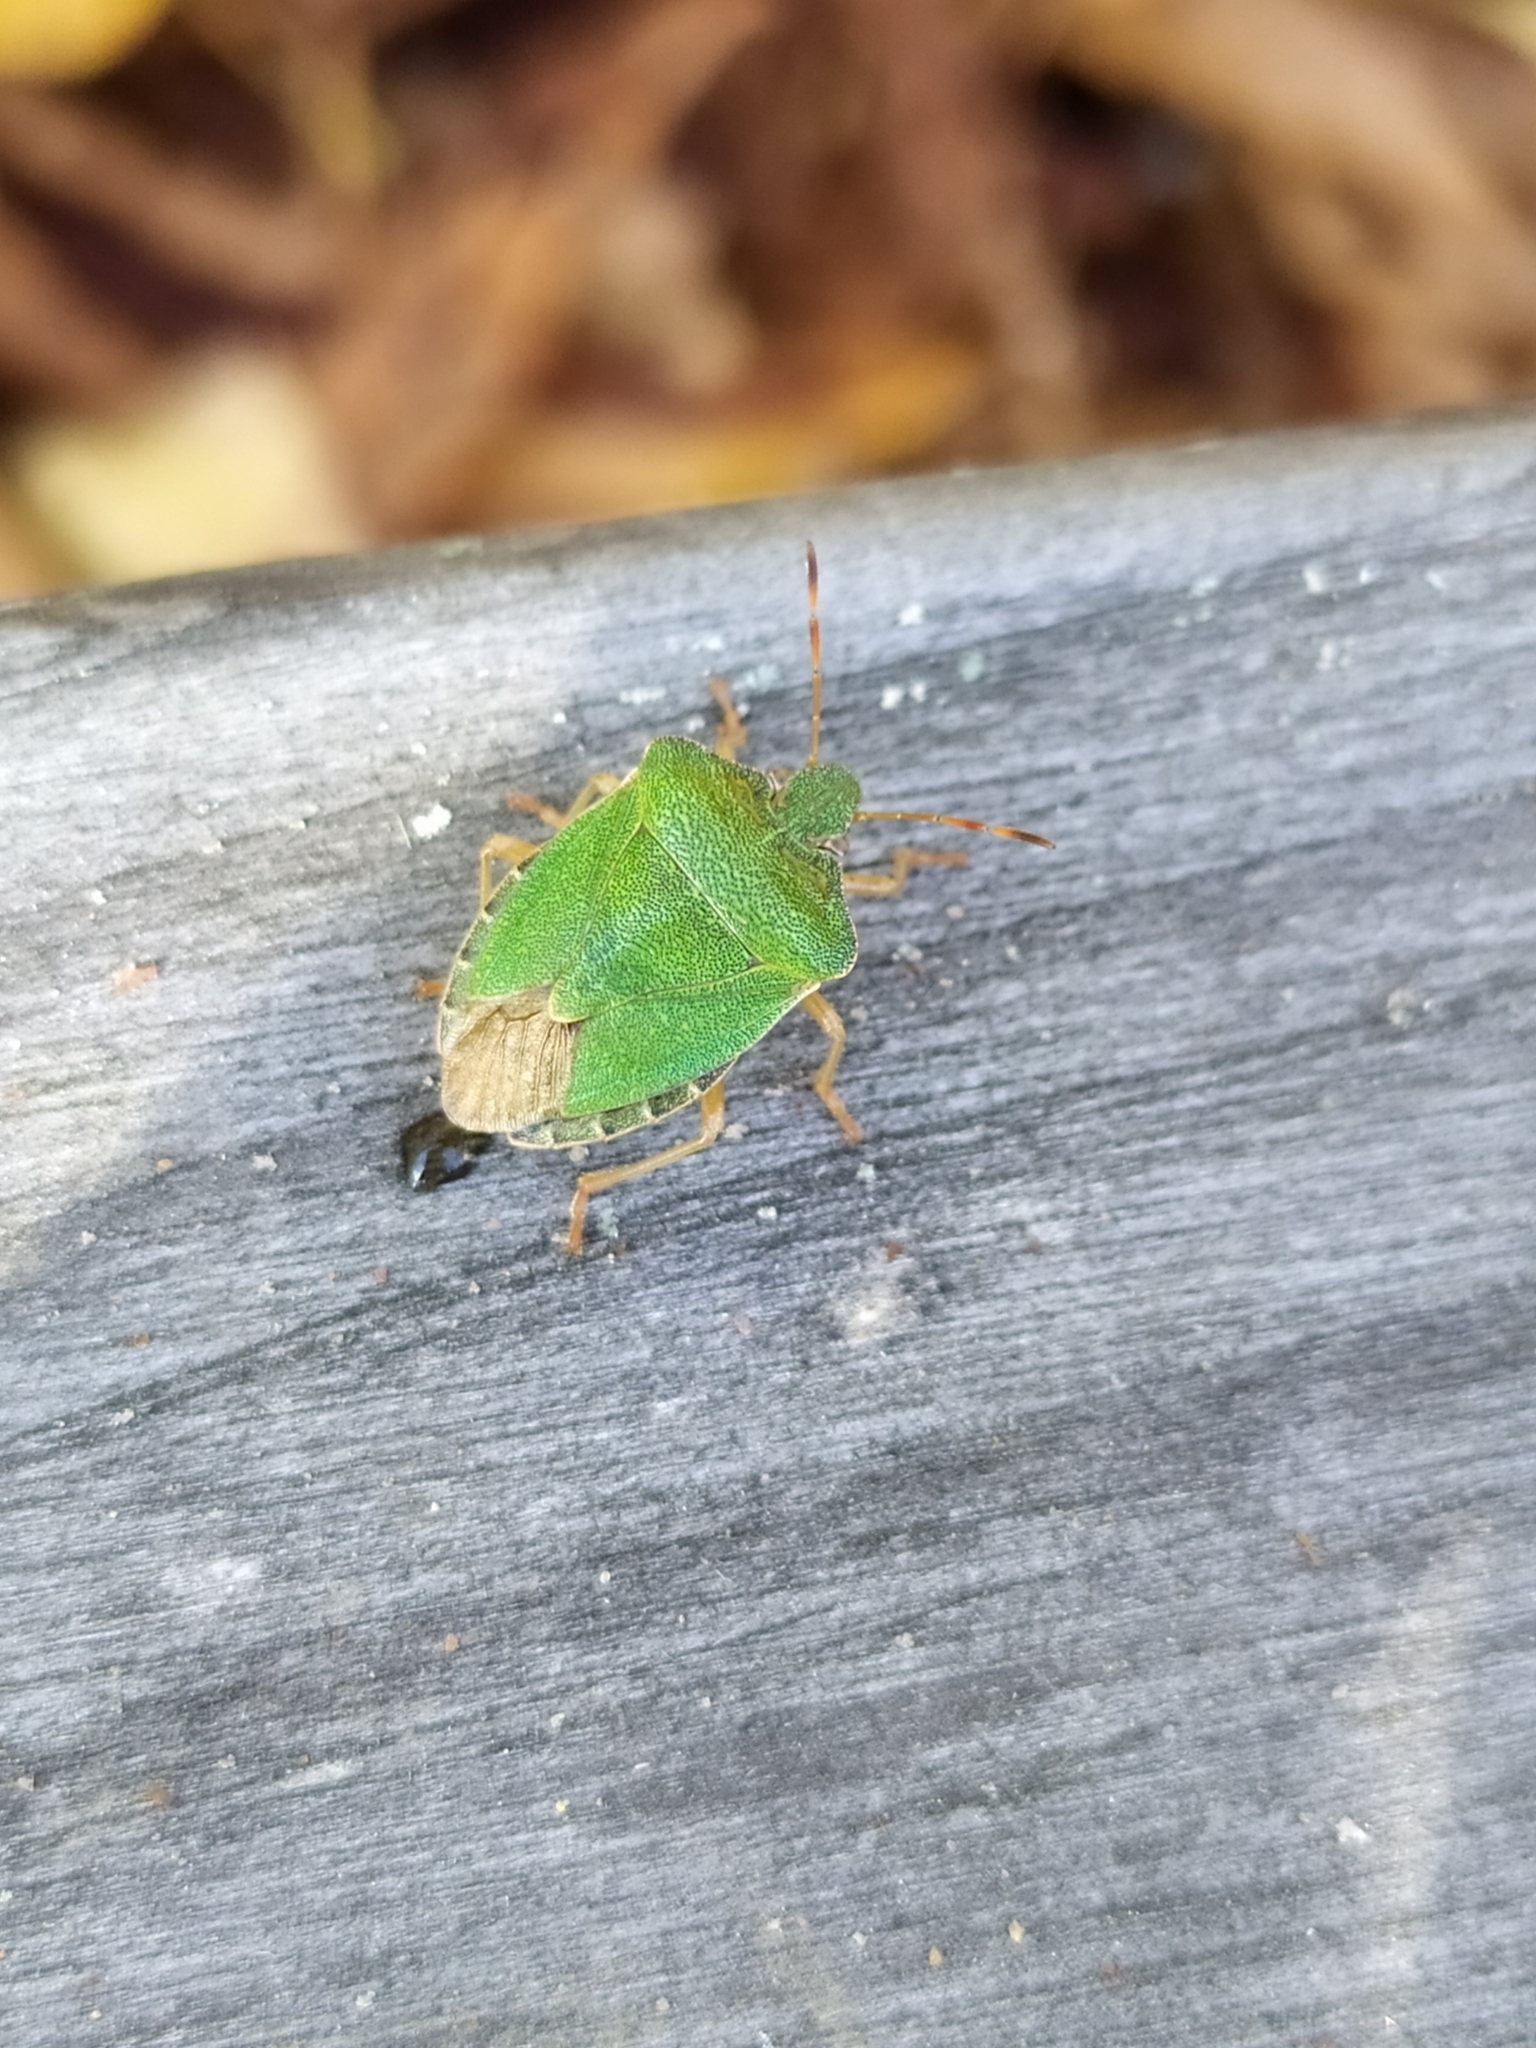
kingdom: Animalia
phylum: Arthropoda
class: Insecta
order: Hemiptera
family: Pentatomidae
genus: Palomena
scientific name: Palomena prasina
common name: Green shieldbug
